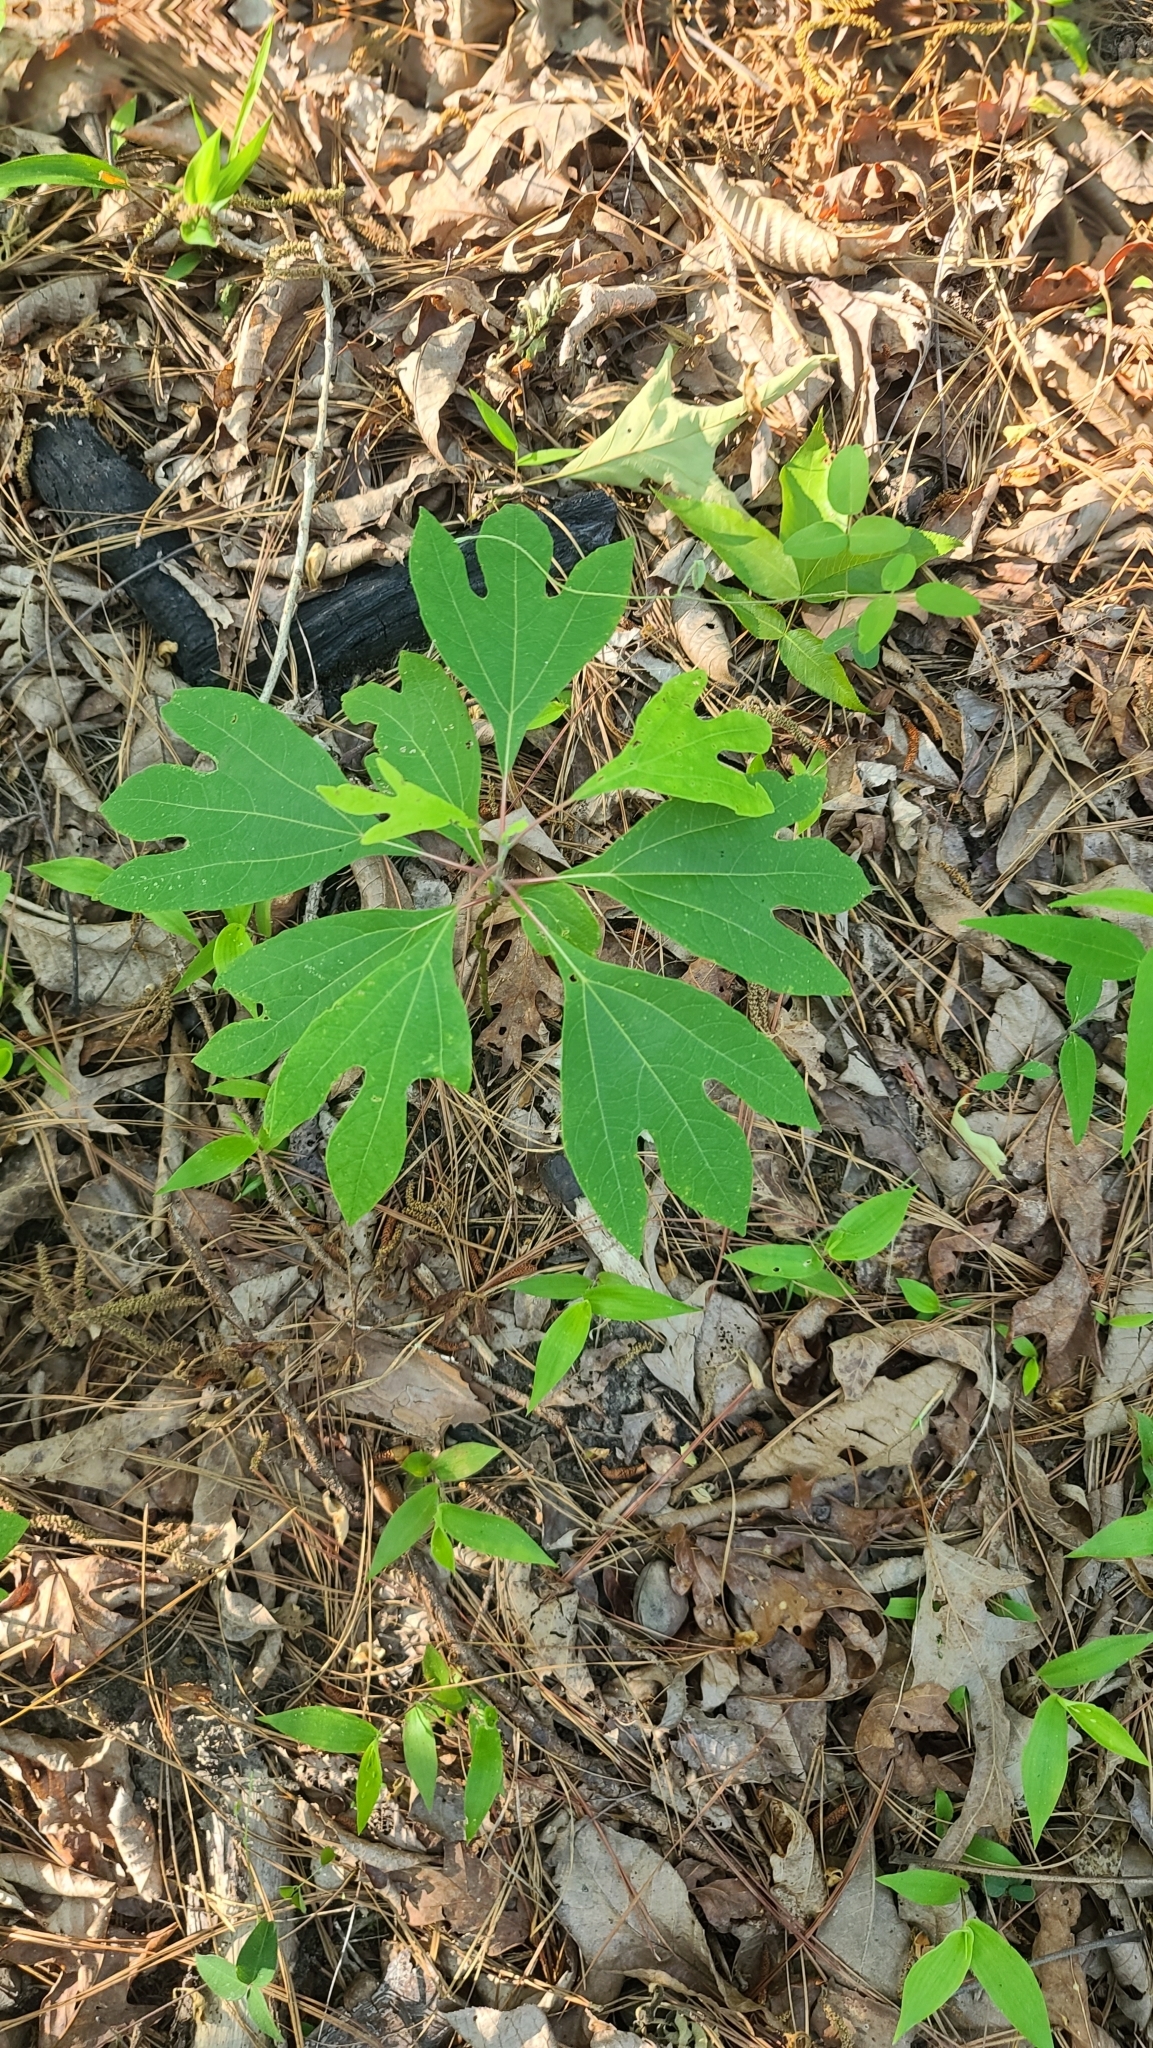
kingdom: Plantae
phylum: Tracheophyta
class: Magnoliopsida
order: Laurales
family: Lauraceae
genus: Sassafras
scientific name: Sassafras albidum
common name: Sassafras
